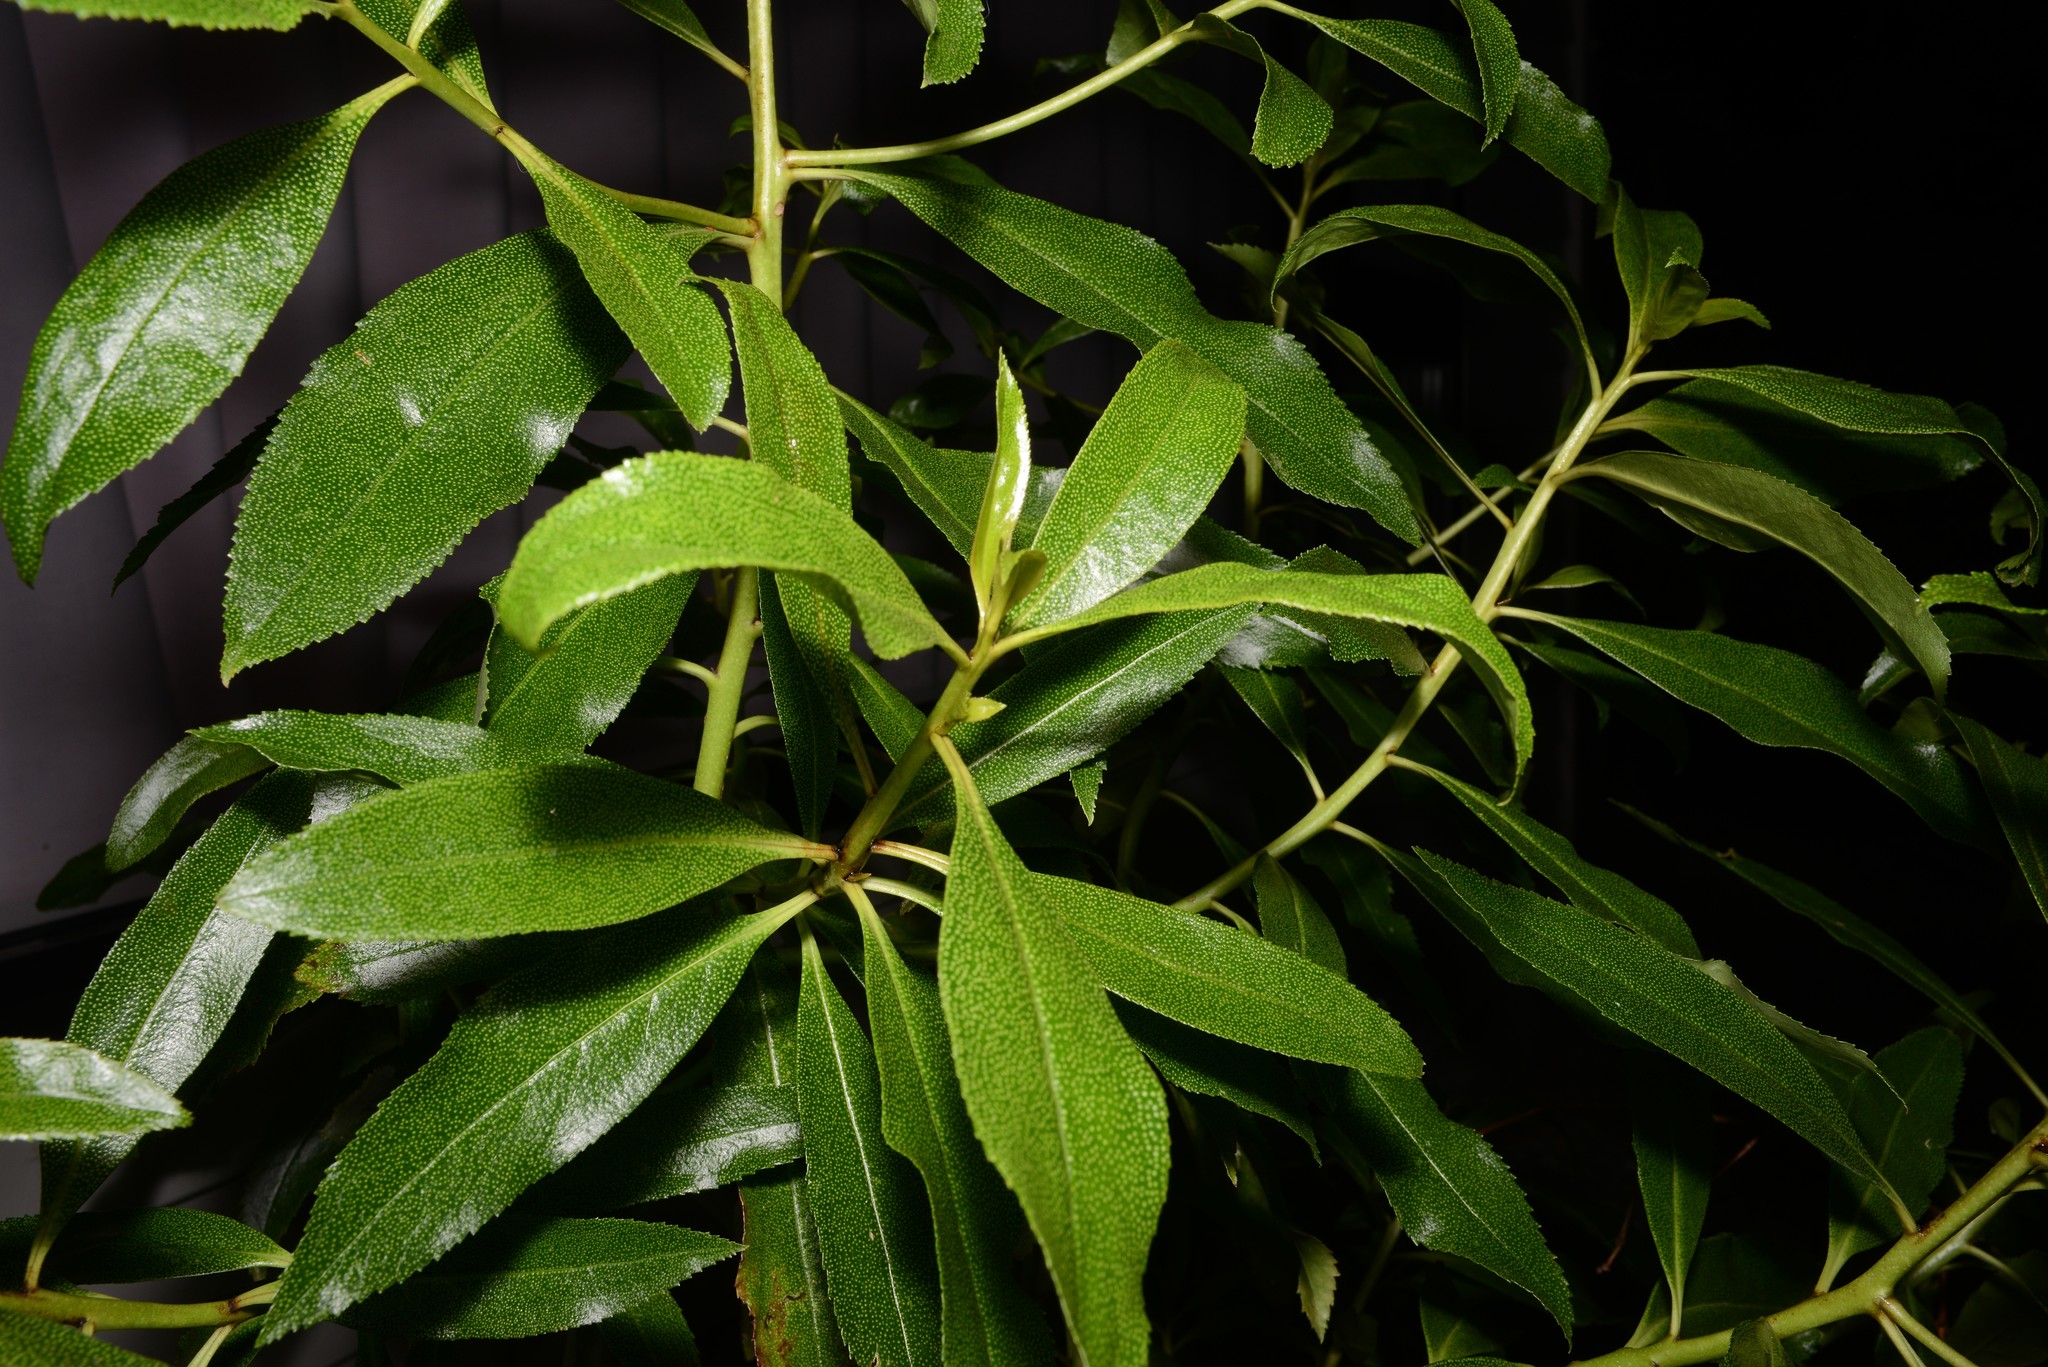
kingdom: Plantae
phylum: Tracheophyta
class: Magnoliopsida
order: Lamiales
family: Scrophulariaceae
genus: Myoporum
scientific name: Myoporum laetum
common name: Ngaio tree
